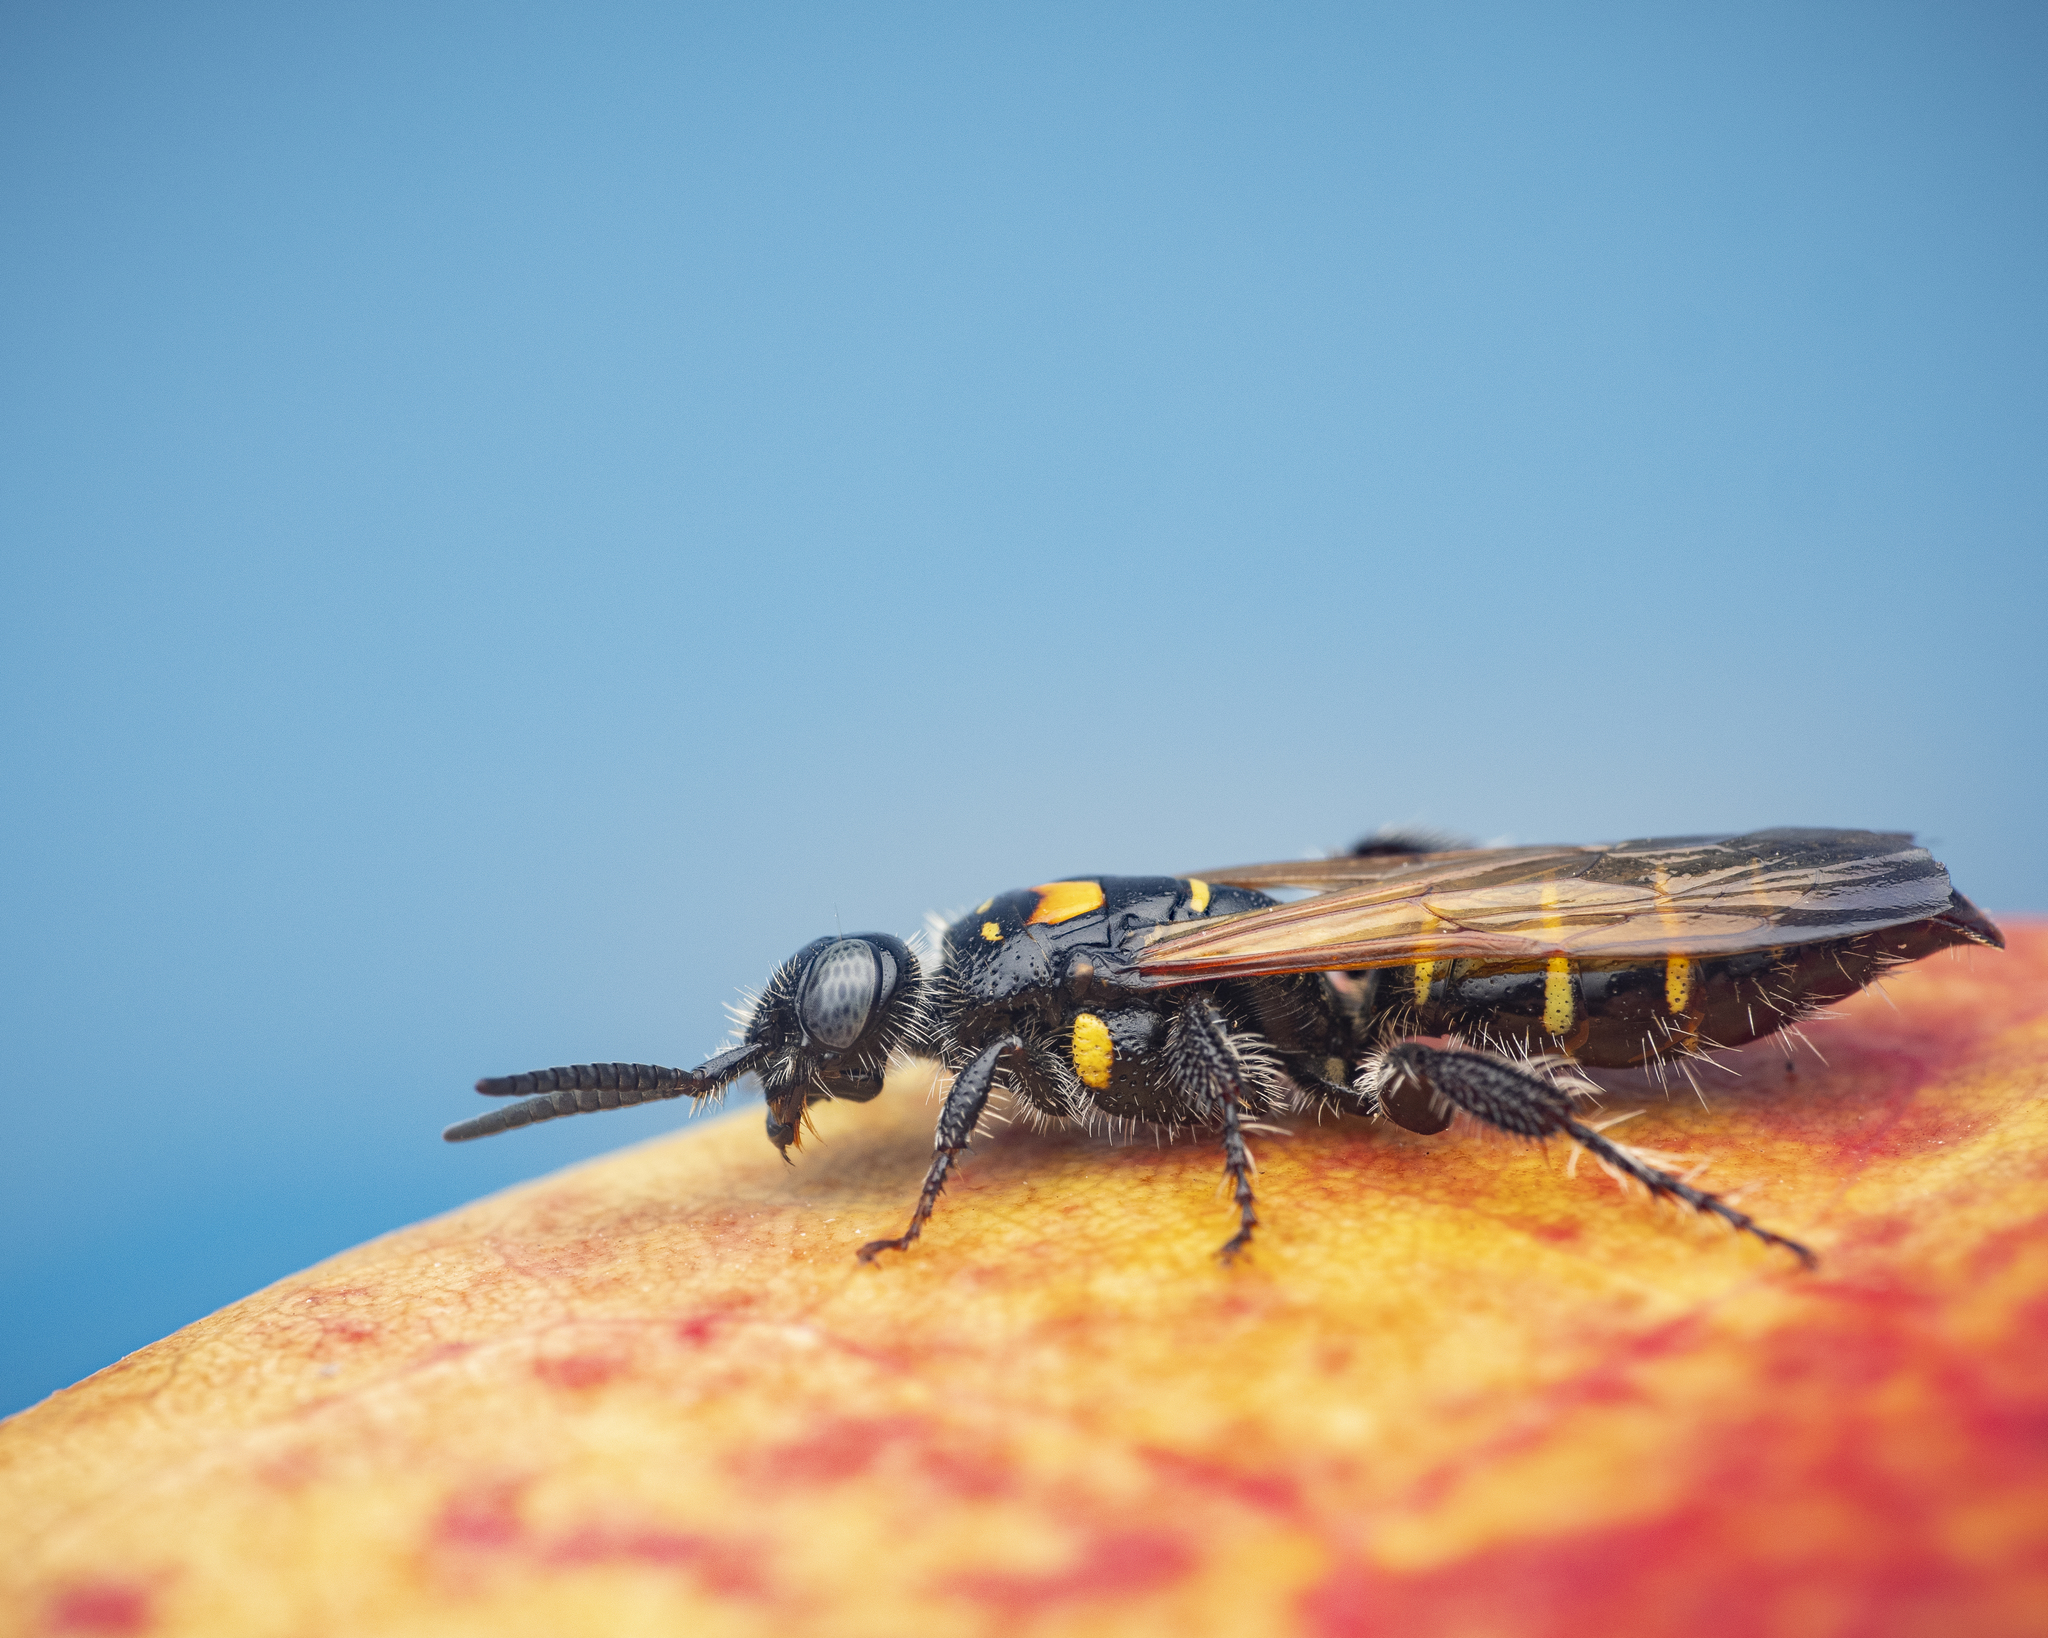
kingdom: Animalia
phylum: Arthropoda
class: Insecta
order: Hymenoptera
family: Tiphiidae
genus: Myzinum
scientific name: Myzinum
